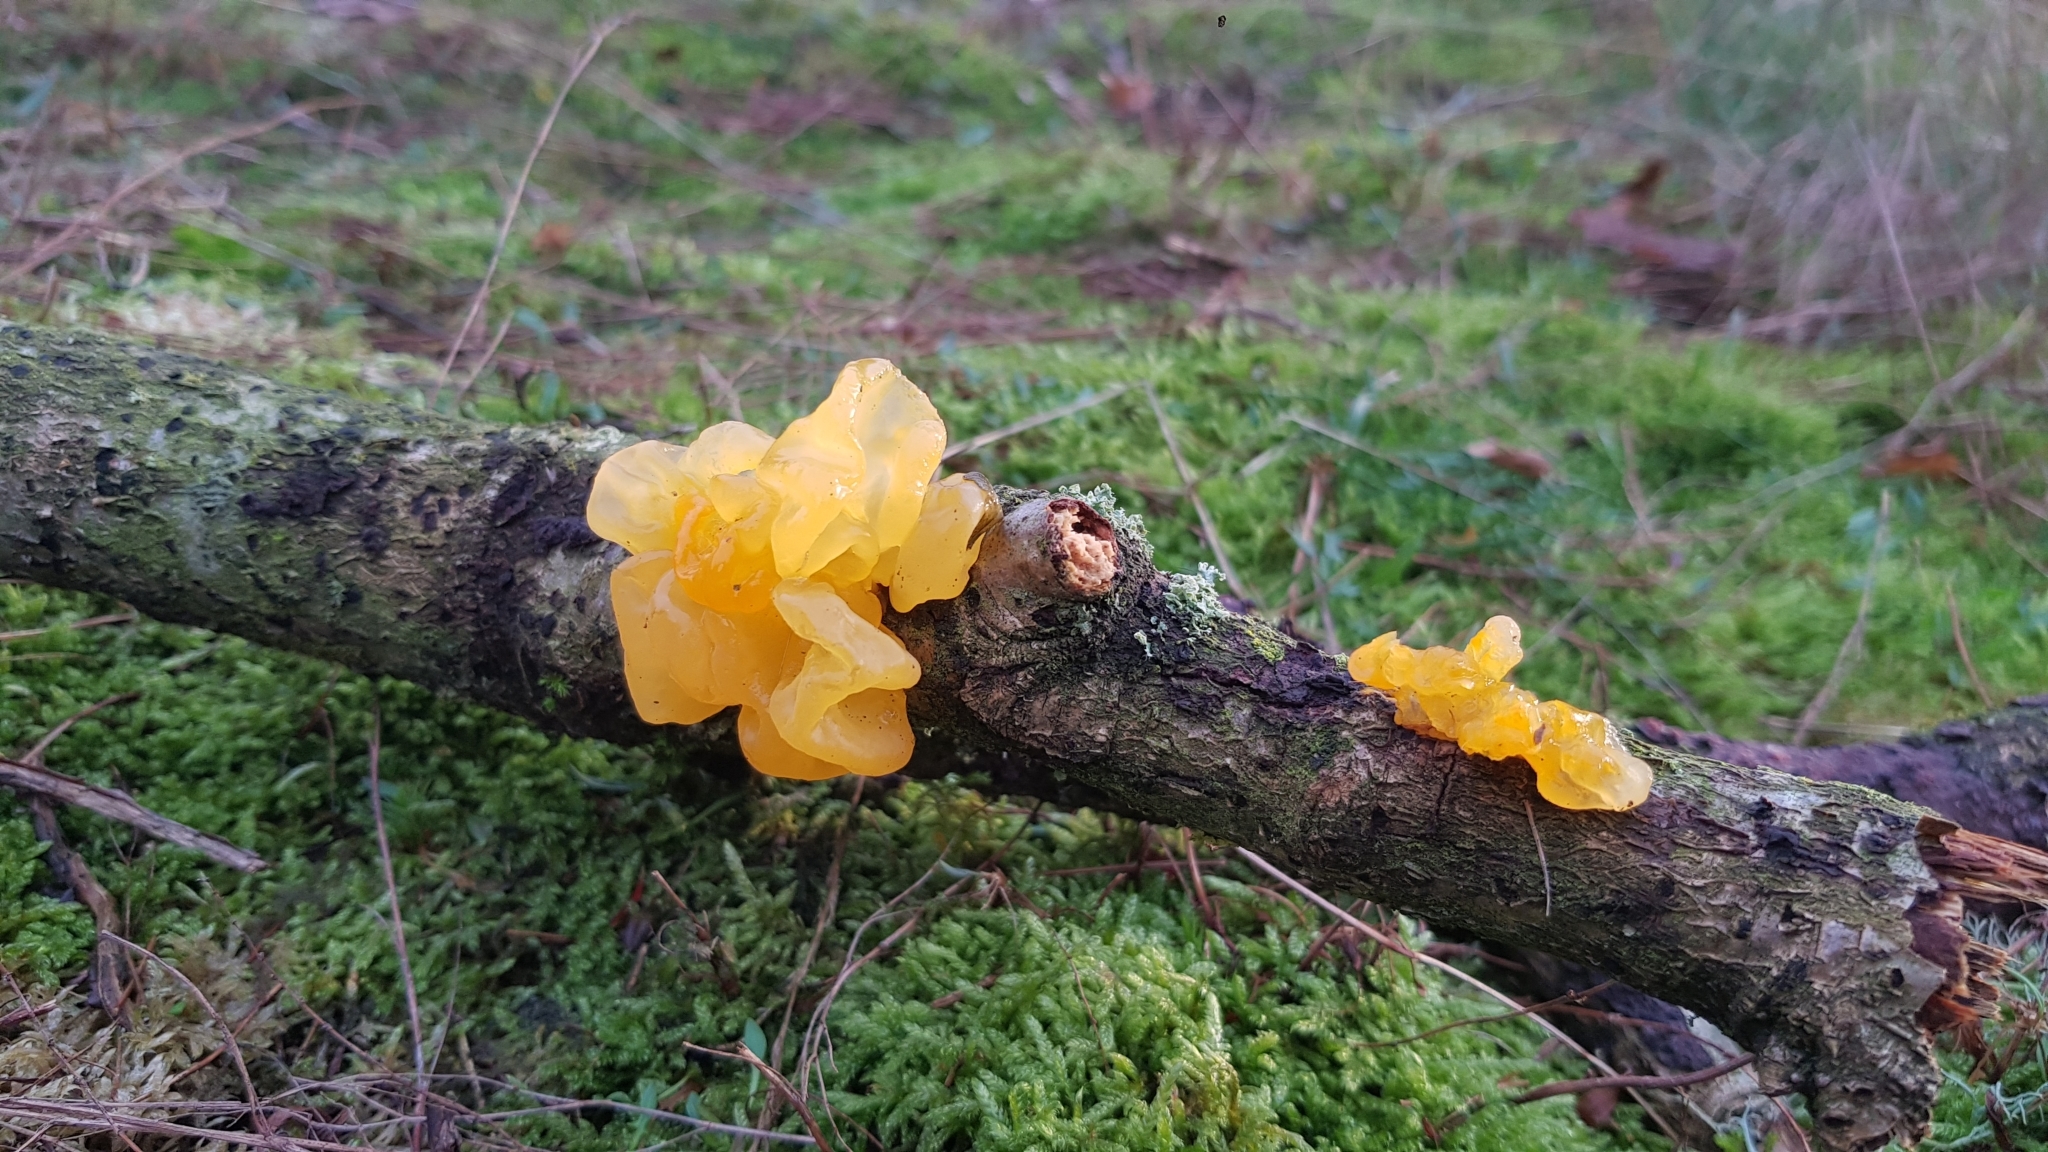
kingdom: Fungi
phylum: Basidiomycota
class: Tremellomycetes
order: Tremellales
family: Tremellaceae
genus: Tremella
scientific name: Tremella mesenterica
